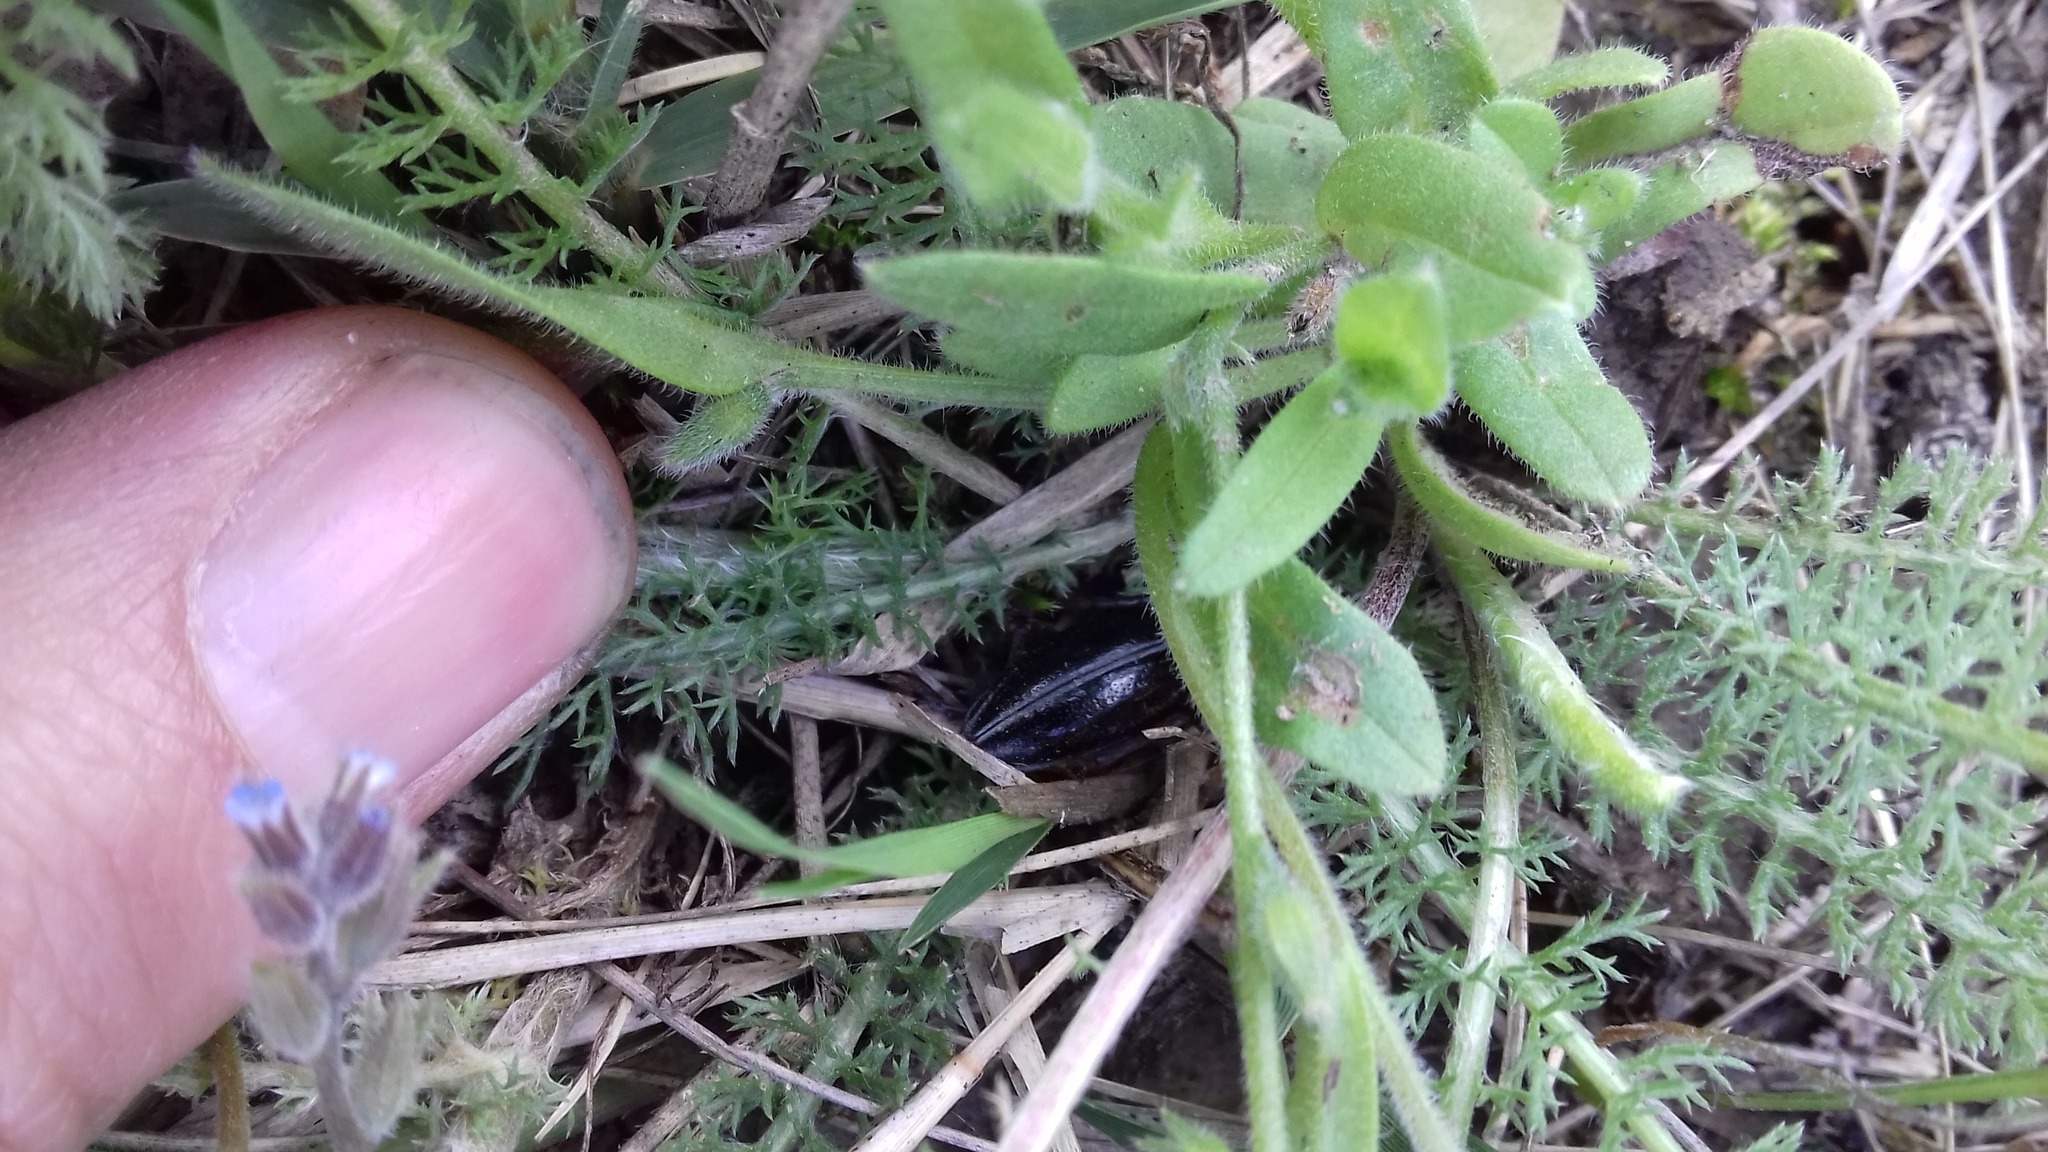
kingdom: Animalia
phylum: Arthropoda
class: Insecta
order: Coleoptera
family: Cerambycidae
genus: Dorcadion
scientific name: Dorcadion pedestre
